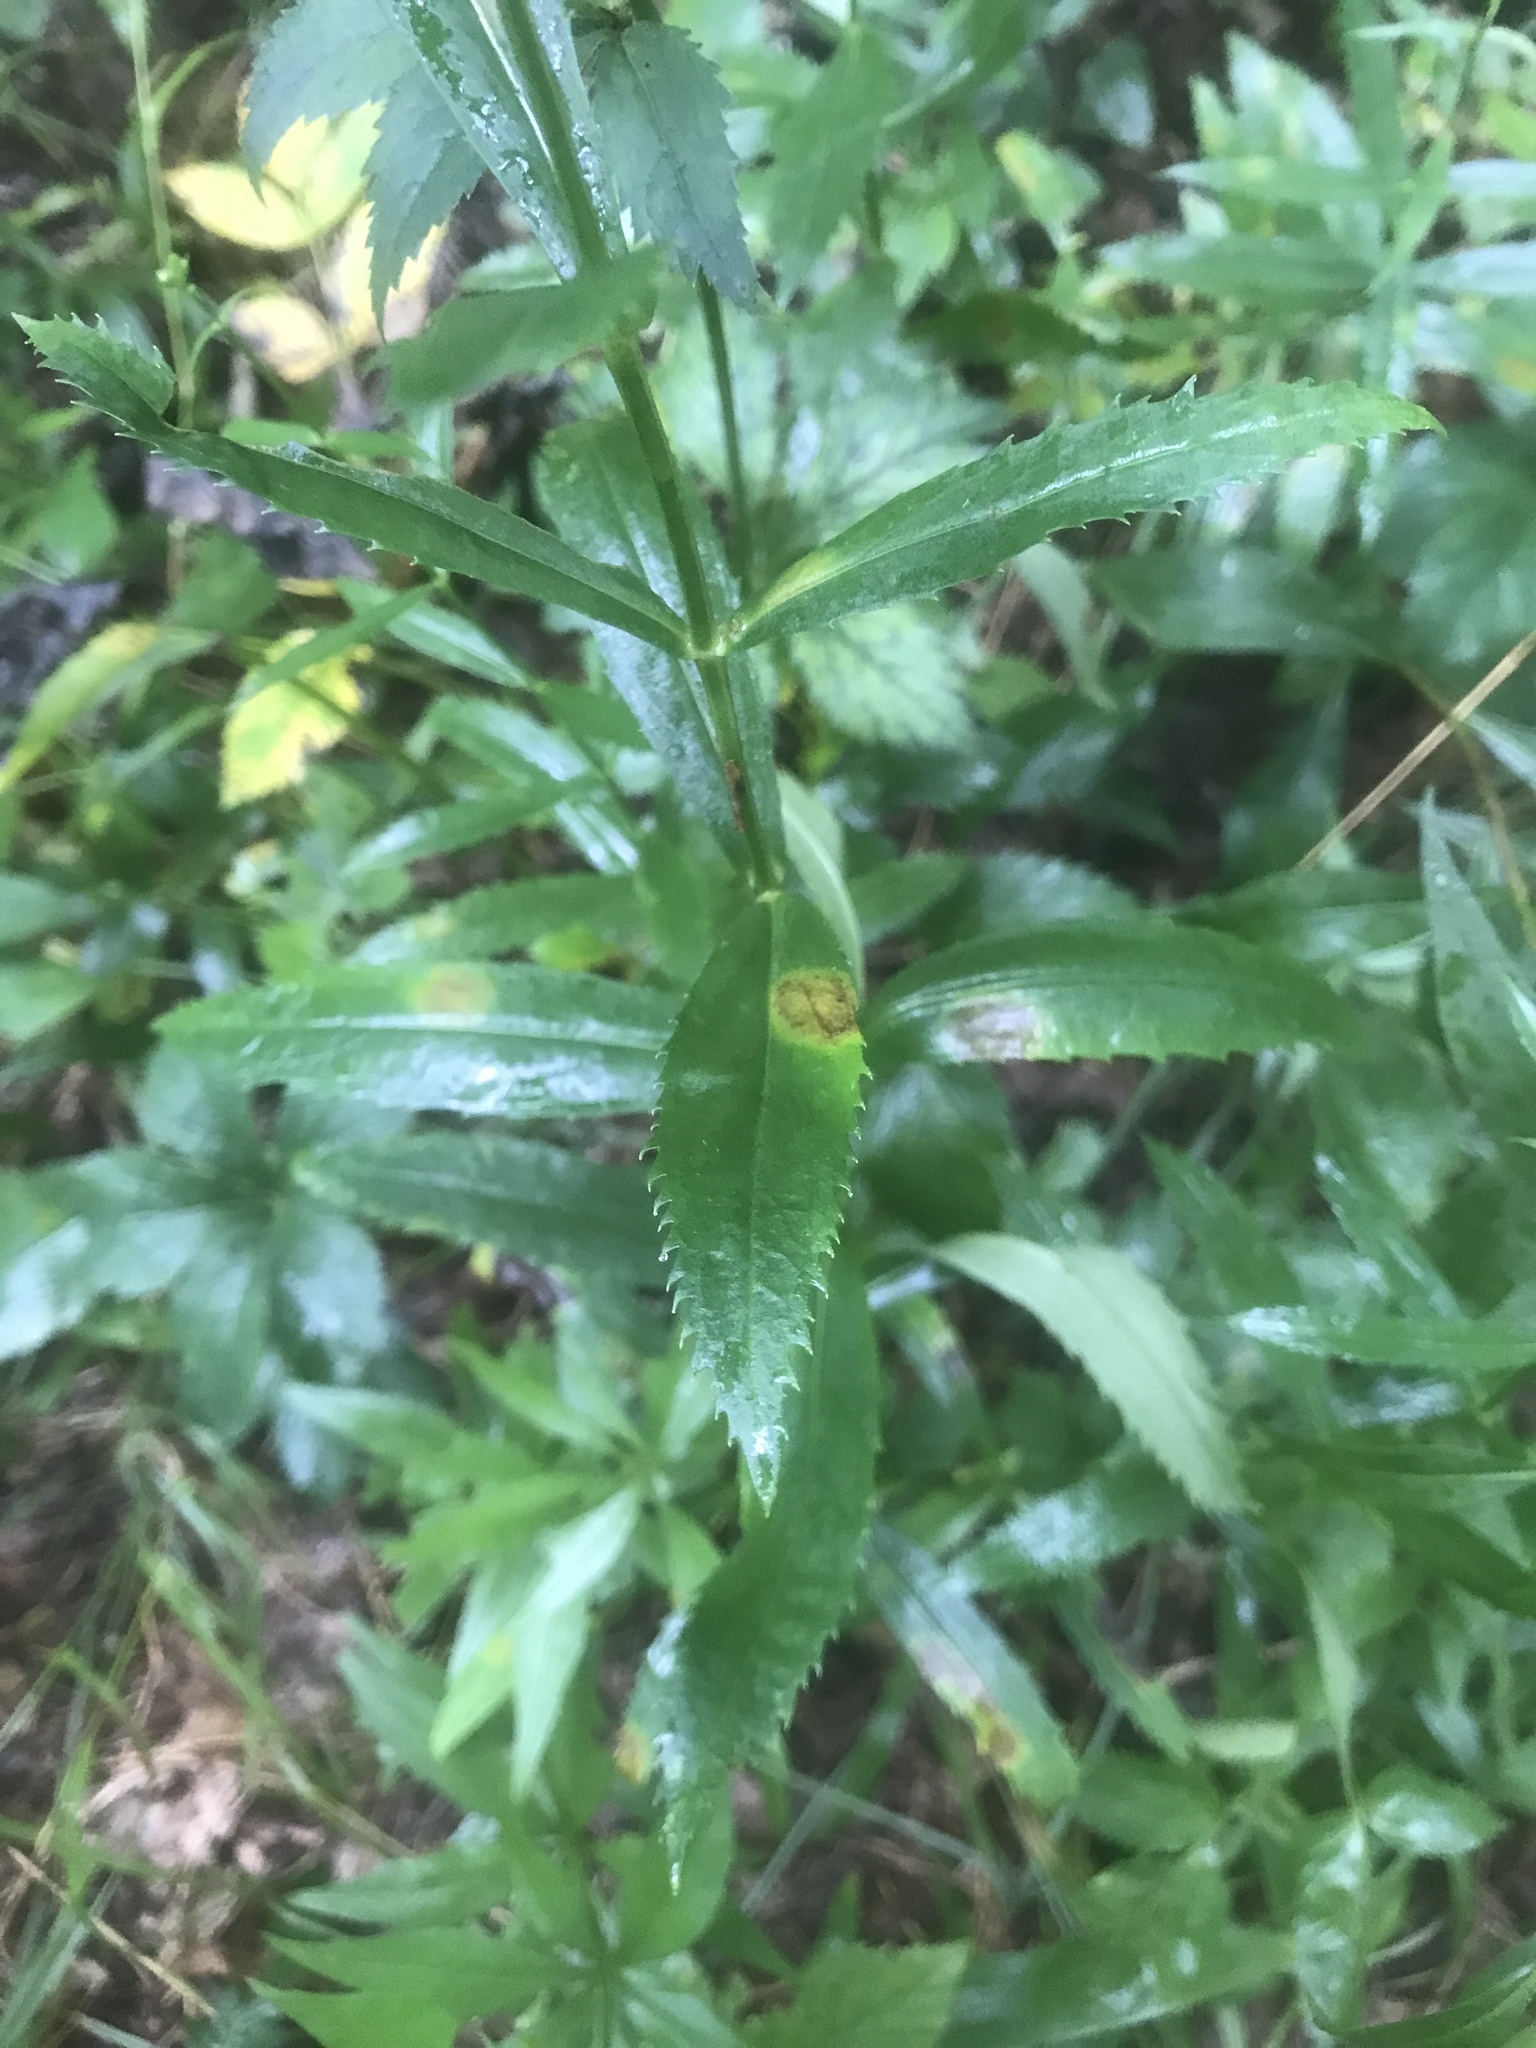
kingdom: Plantae
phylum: Tracheophyta
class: Magnoliopsida
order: Lamiales
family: Lamiaceae
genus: Physostegia
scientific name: Physostegia virginiana
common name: Obedient-plant
